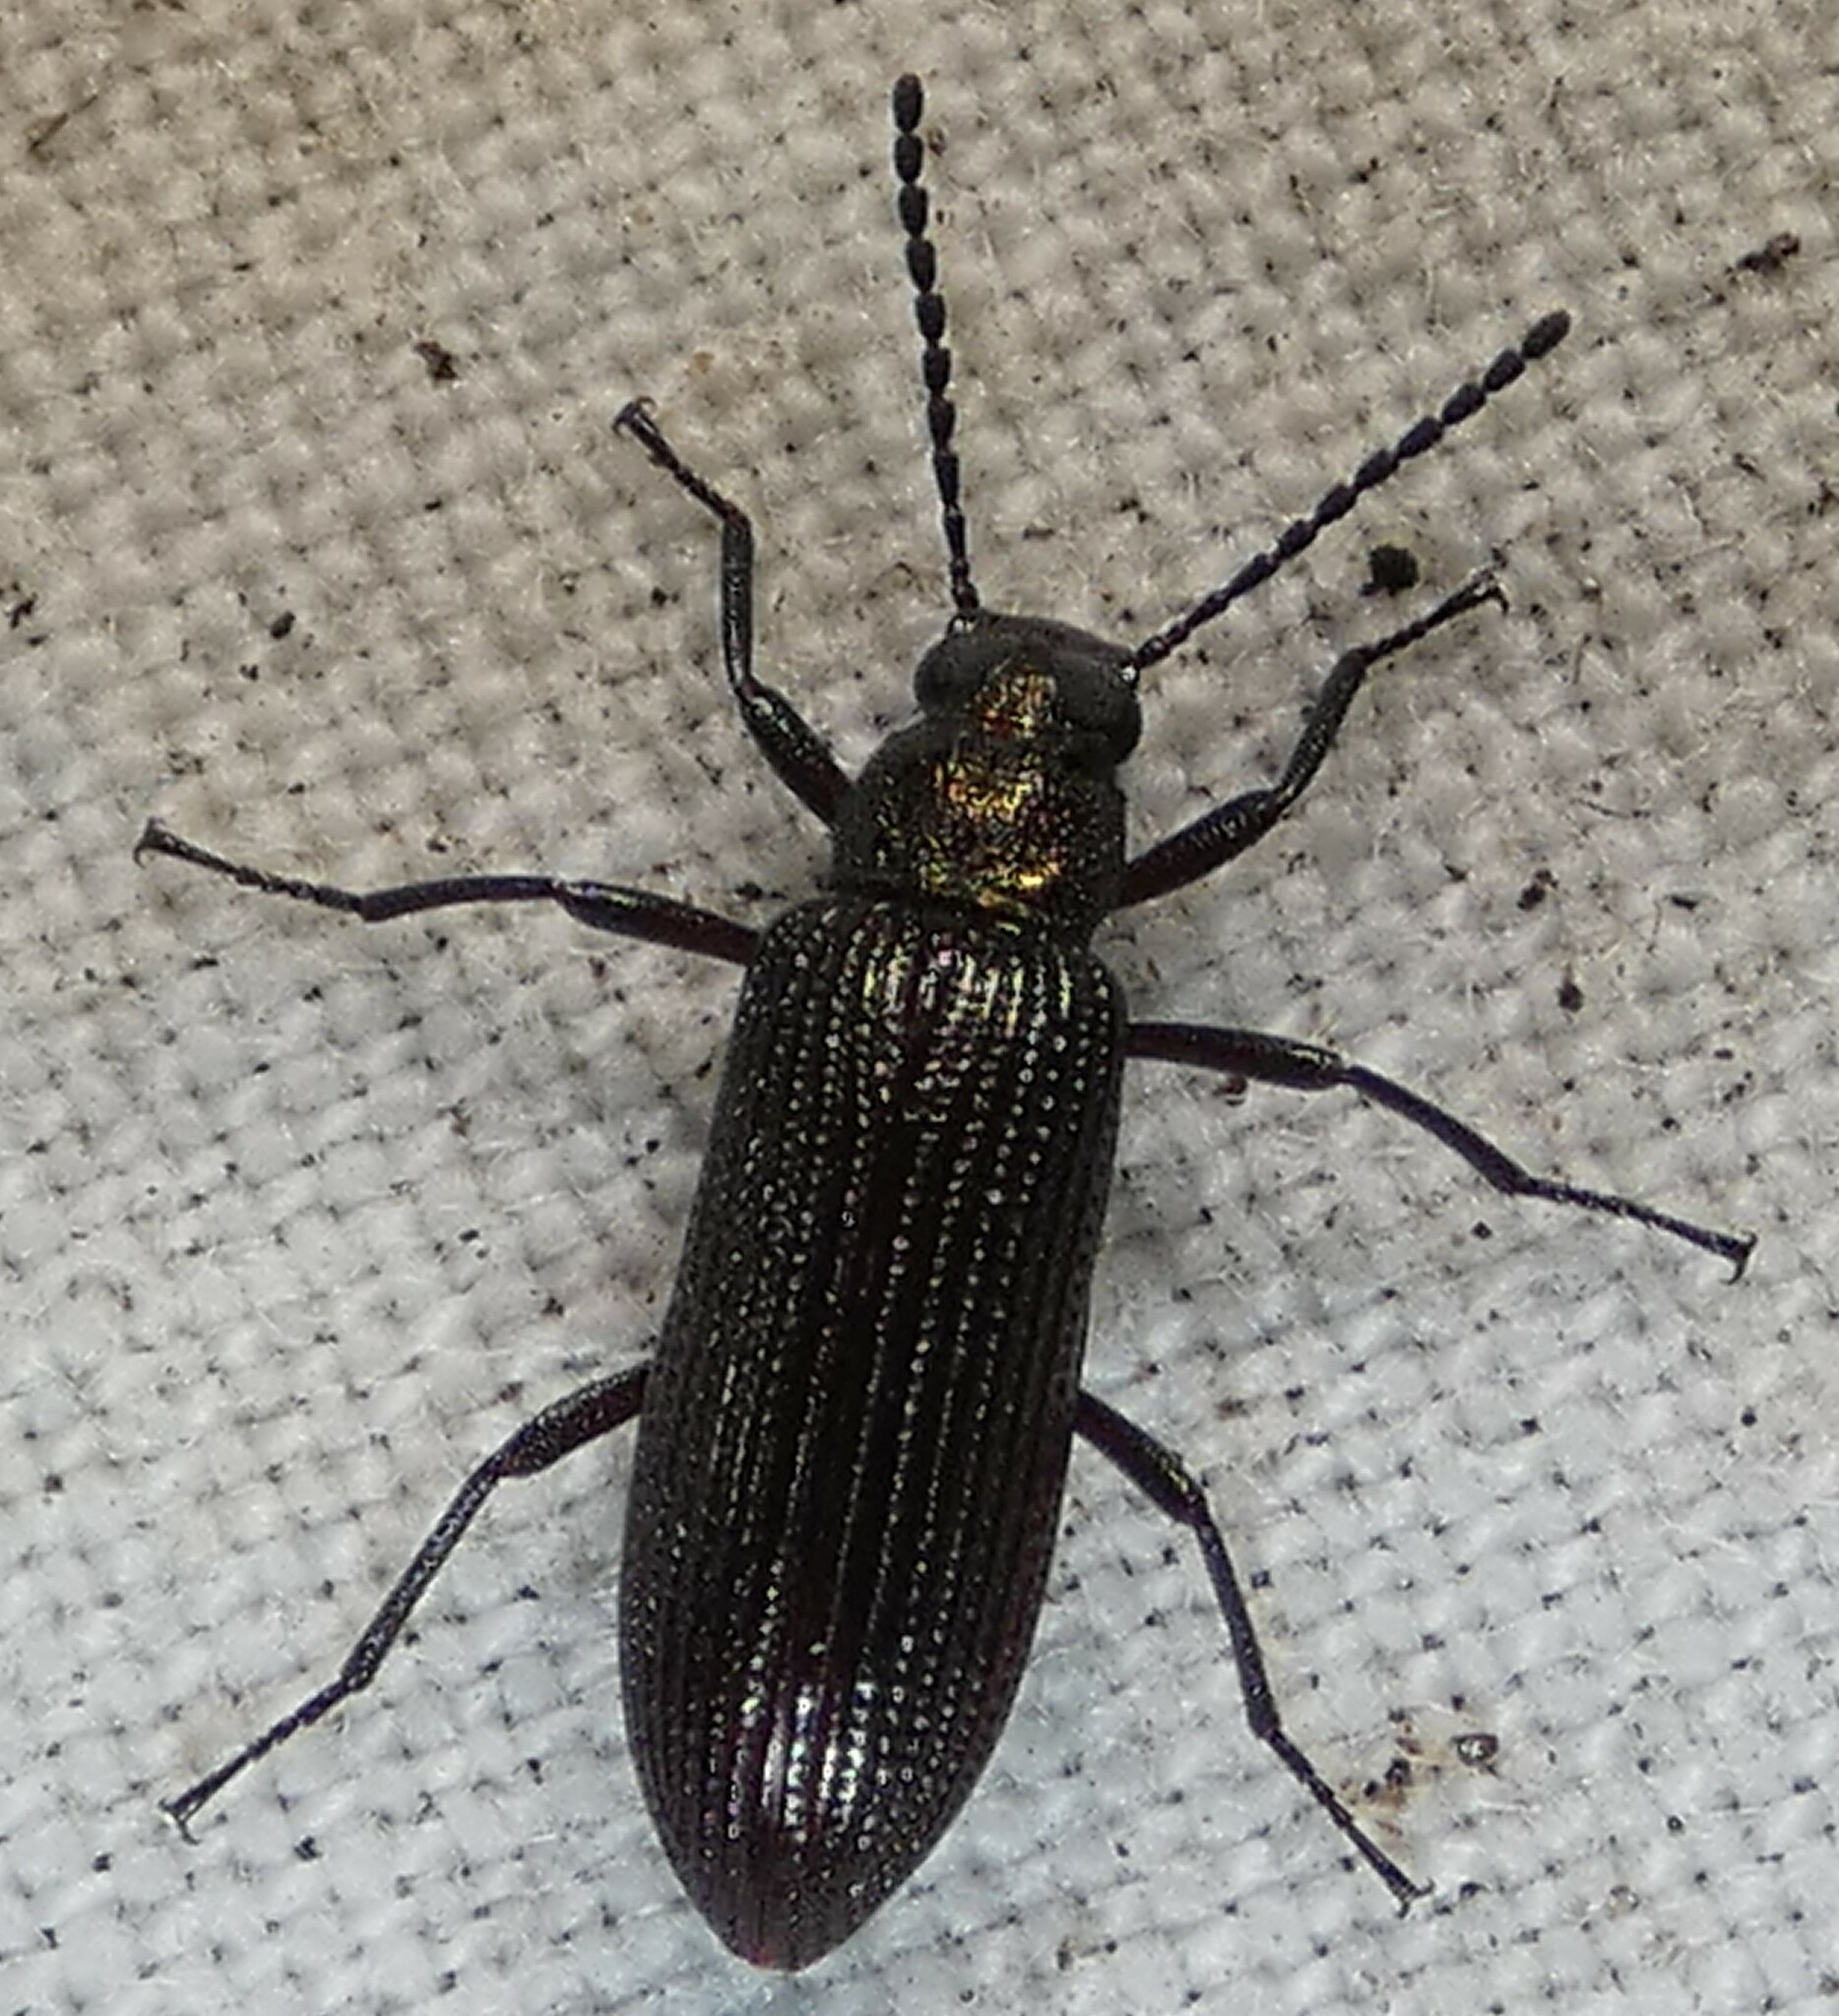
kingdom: Animalia
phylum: Arthropoda
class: Insecta
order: Coleoptera
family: Tenebrionidae
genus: Strongylium
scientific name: Strongylium
